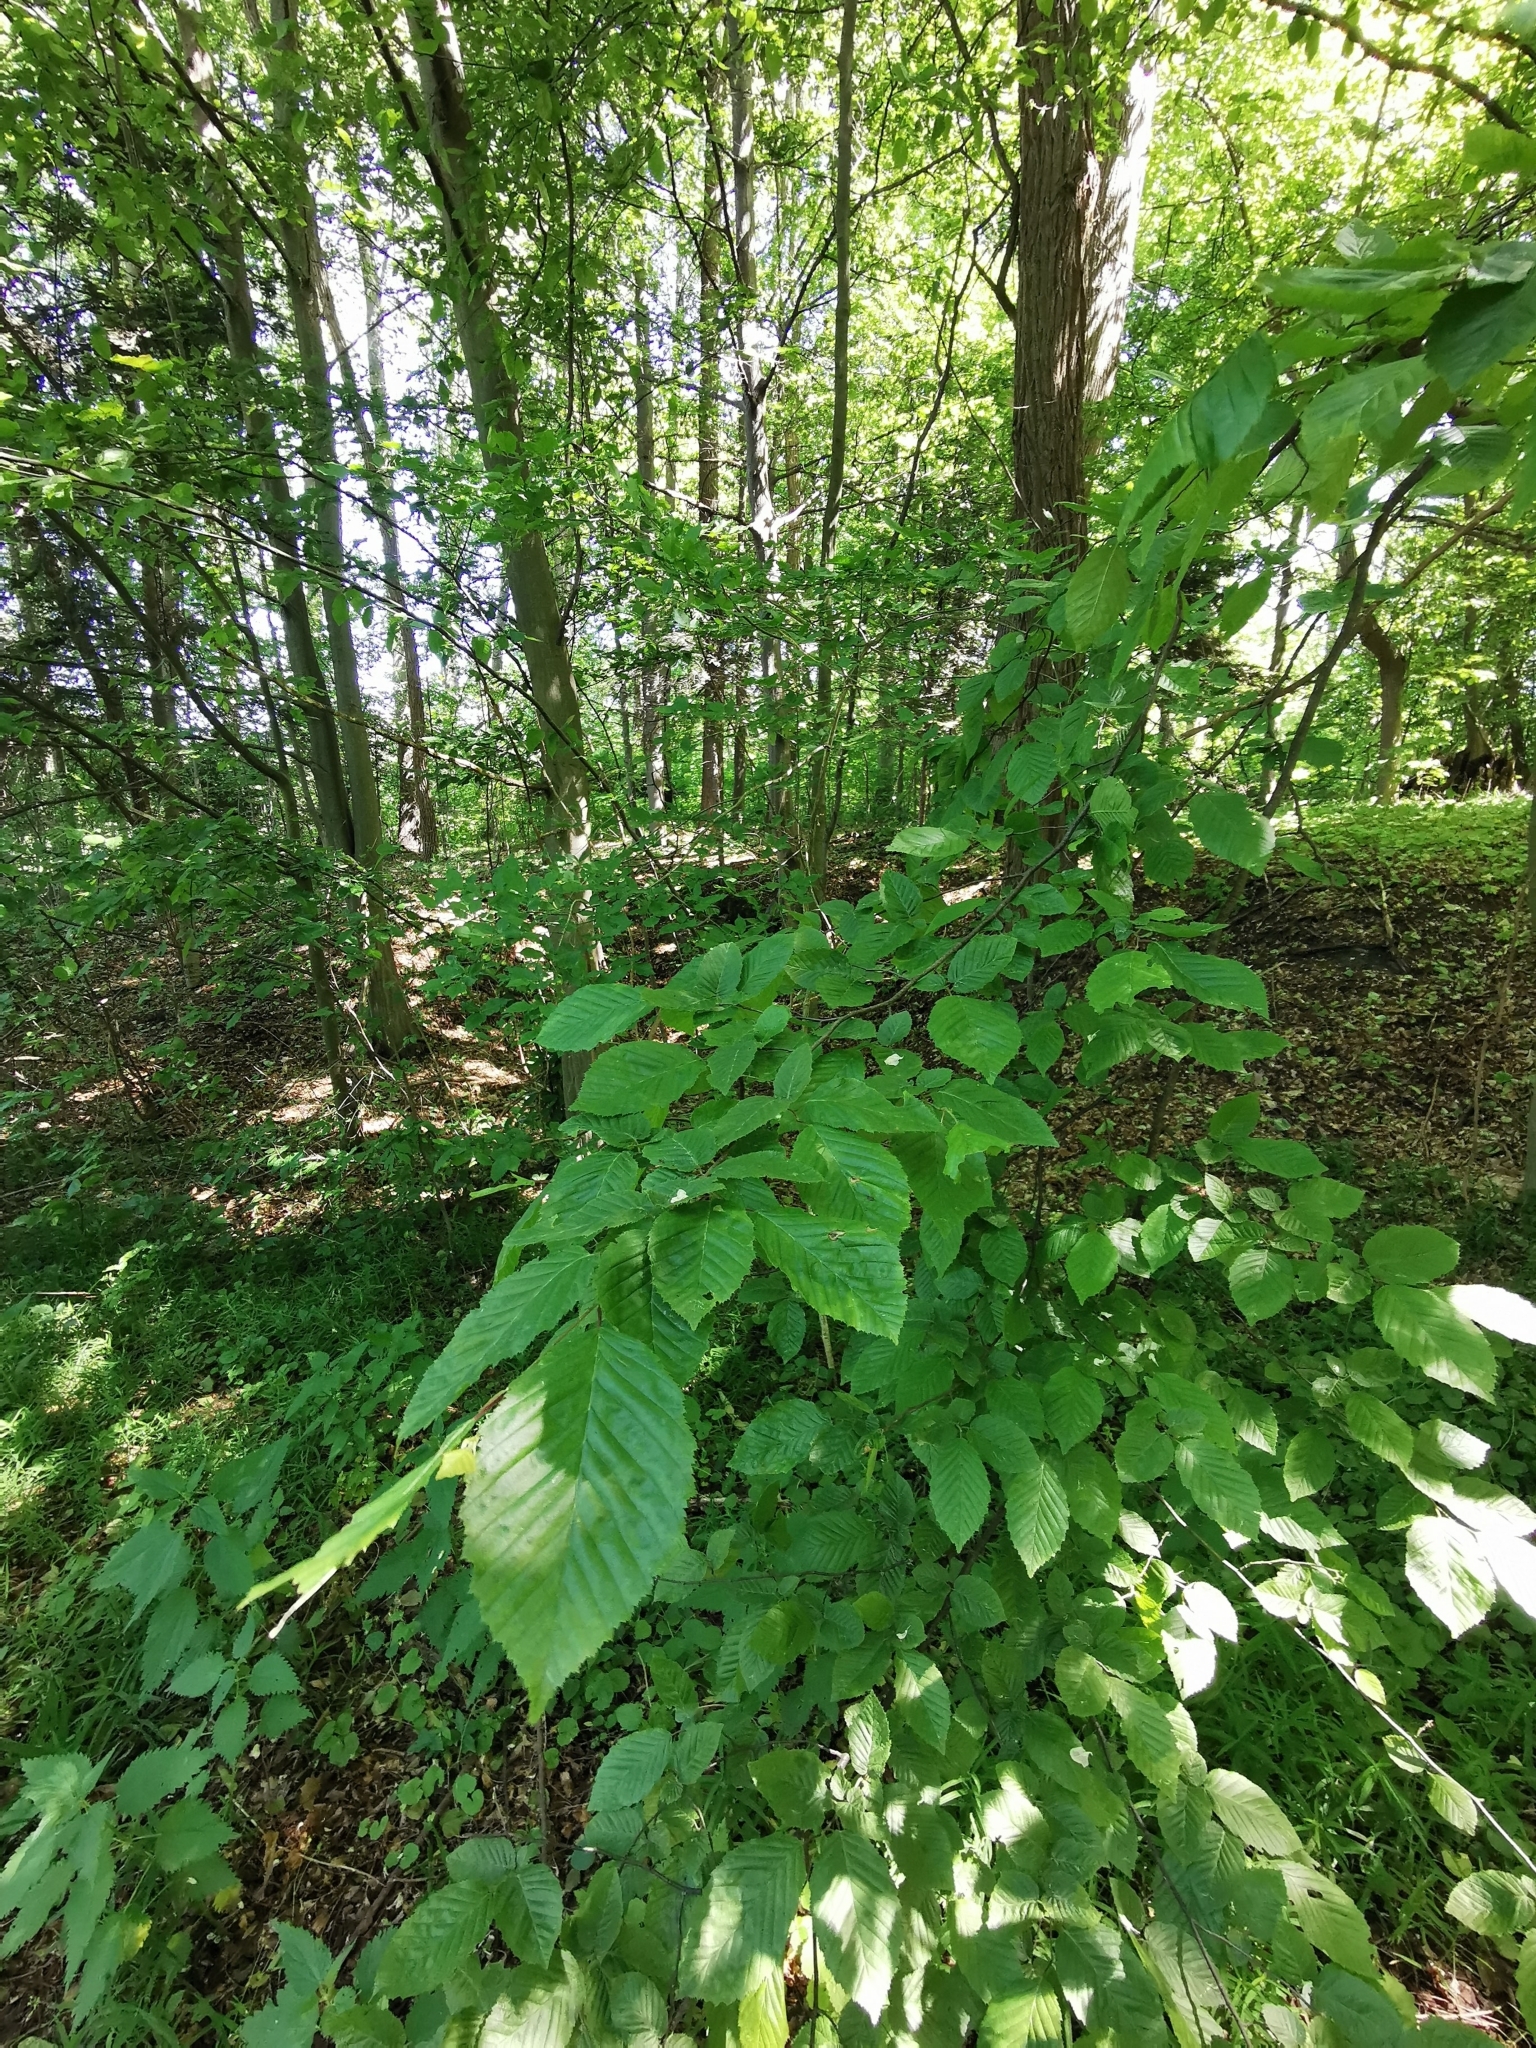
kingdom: Plantae
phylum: Tracheophyta
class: Magnoliopsida
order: Fagales
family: Betulaceae
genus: Carpinus
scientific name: Carpinus betulus
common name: Hornbeam
